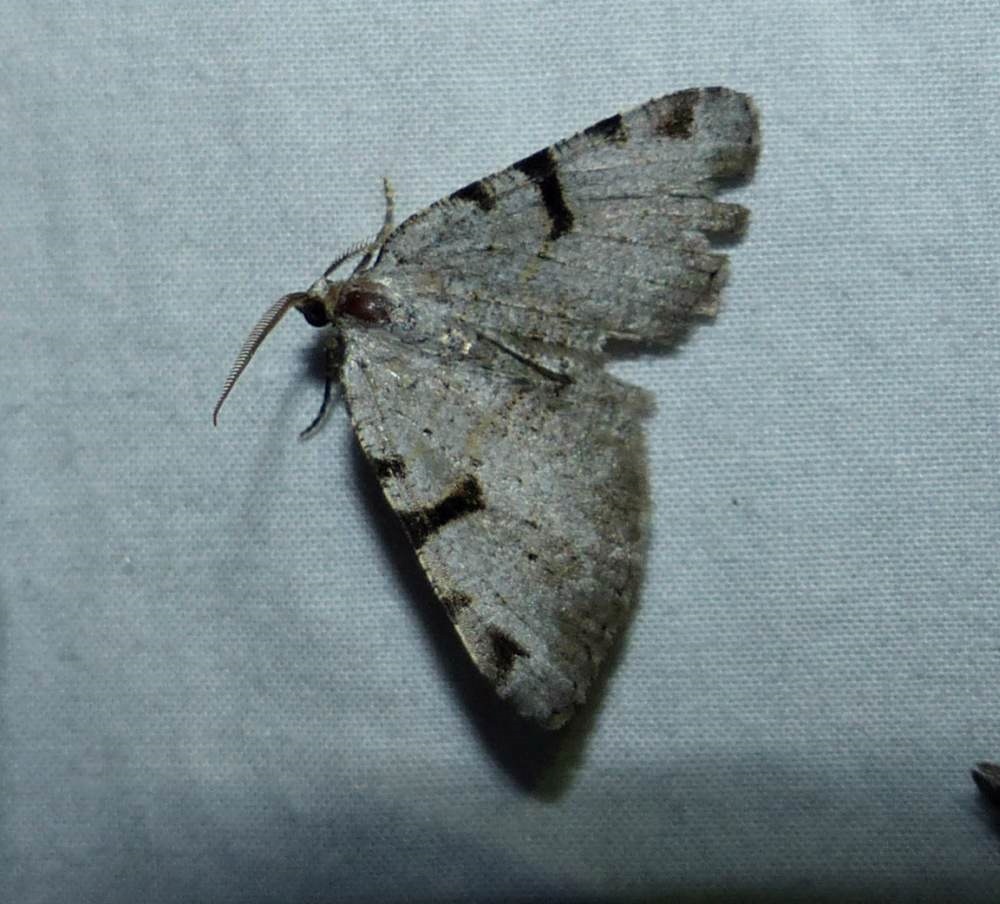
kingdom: Animalia
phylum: Arthropoda
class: Insecta
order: Lepidoptera
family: Geometridae
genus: Macaria
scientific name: Macaria subcessaria
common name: Barred angle
